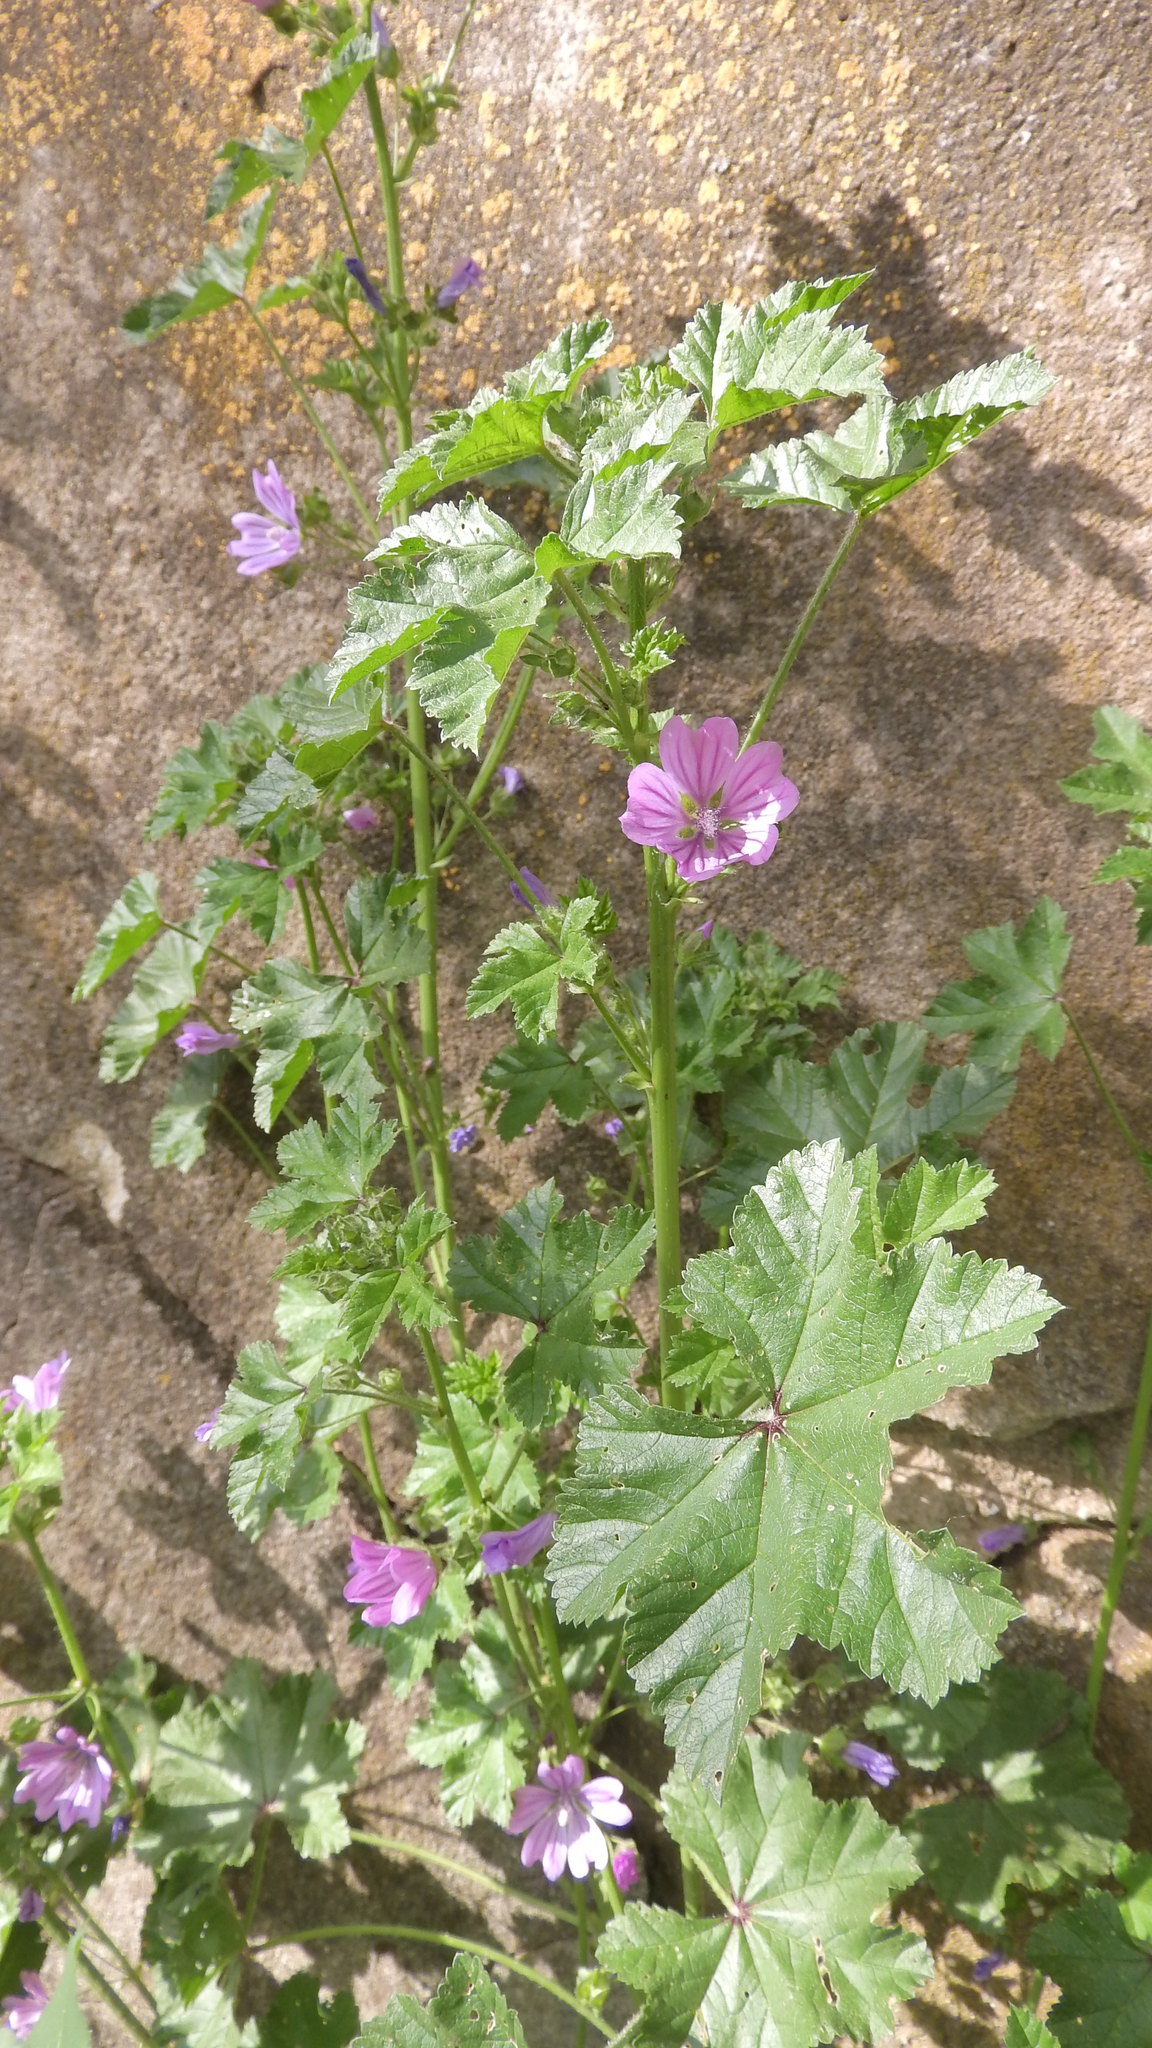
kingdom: Plantae
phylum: Tracheophyta
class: Magnoliopsida
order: Malvales
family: Malvaceae
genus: Malva
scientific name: Malva sylvestris
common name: Common mallow
